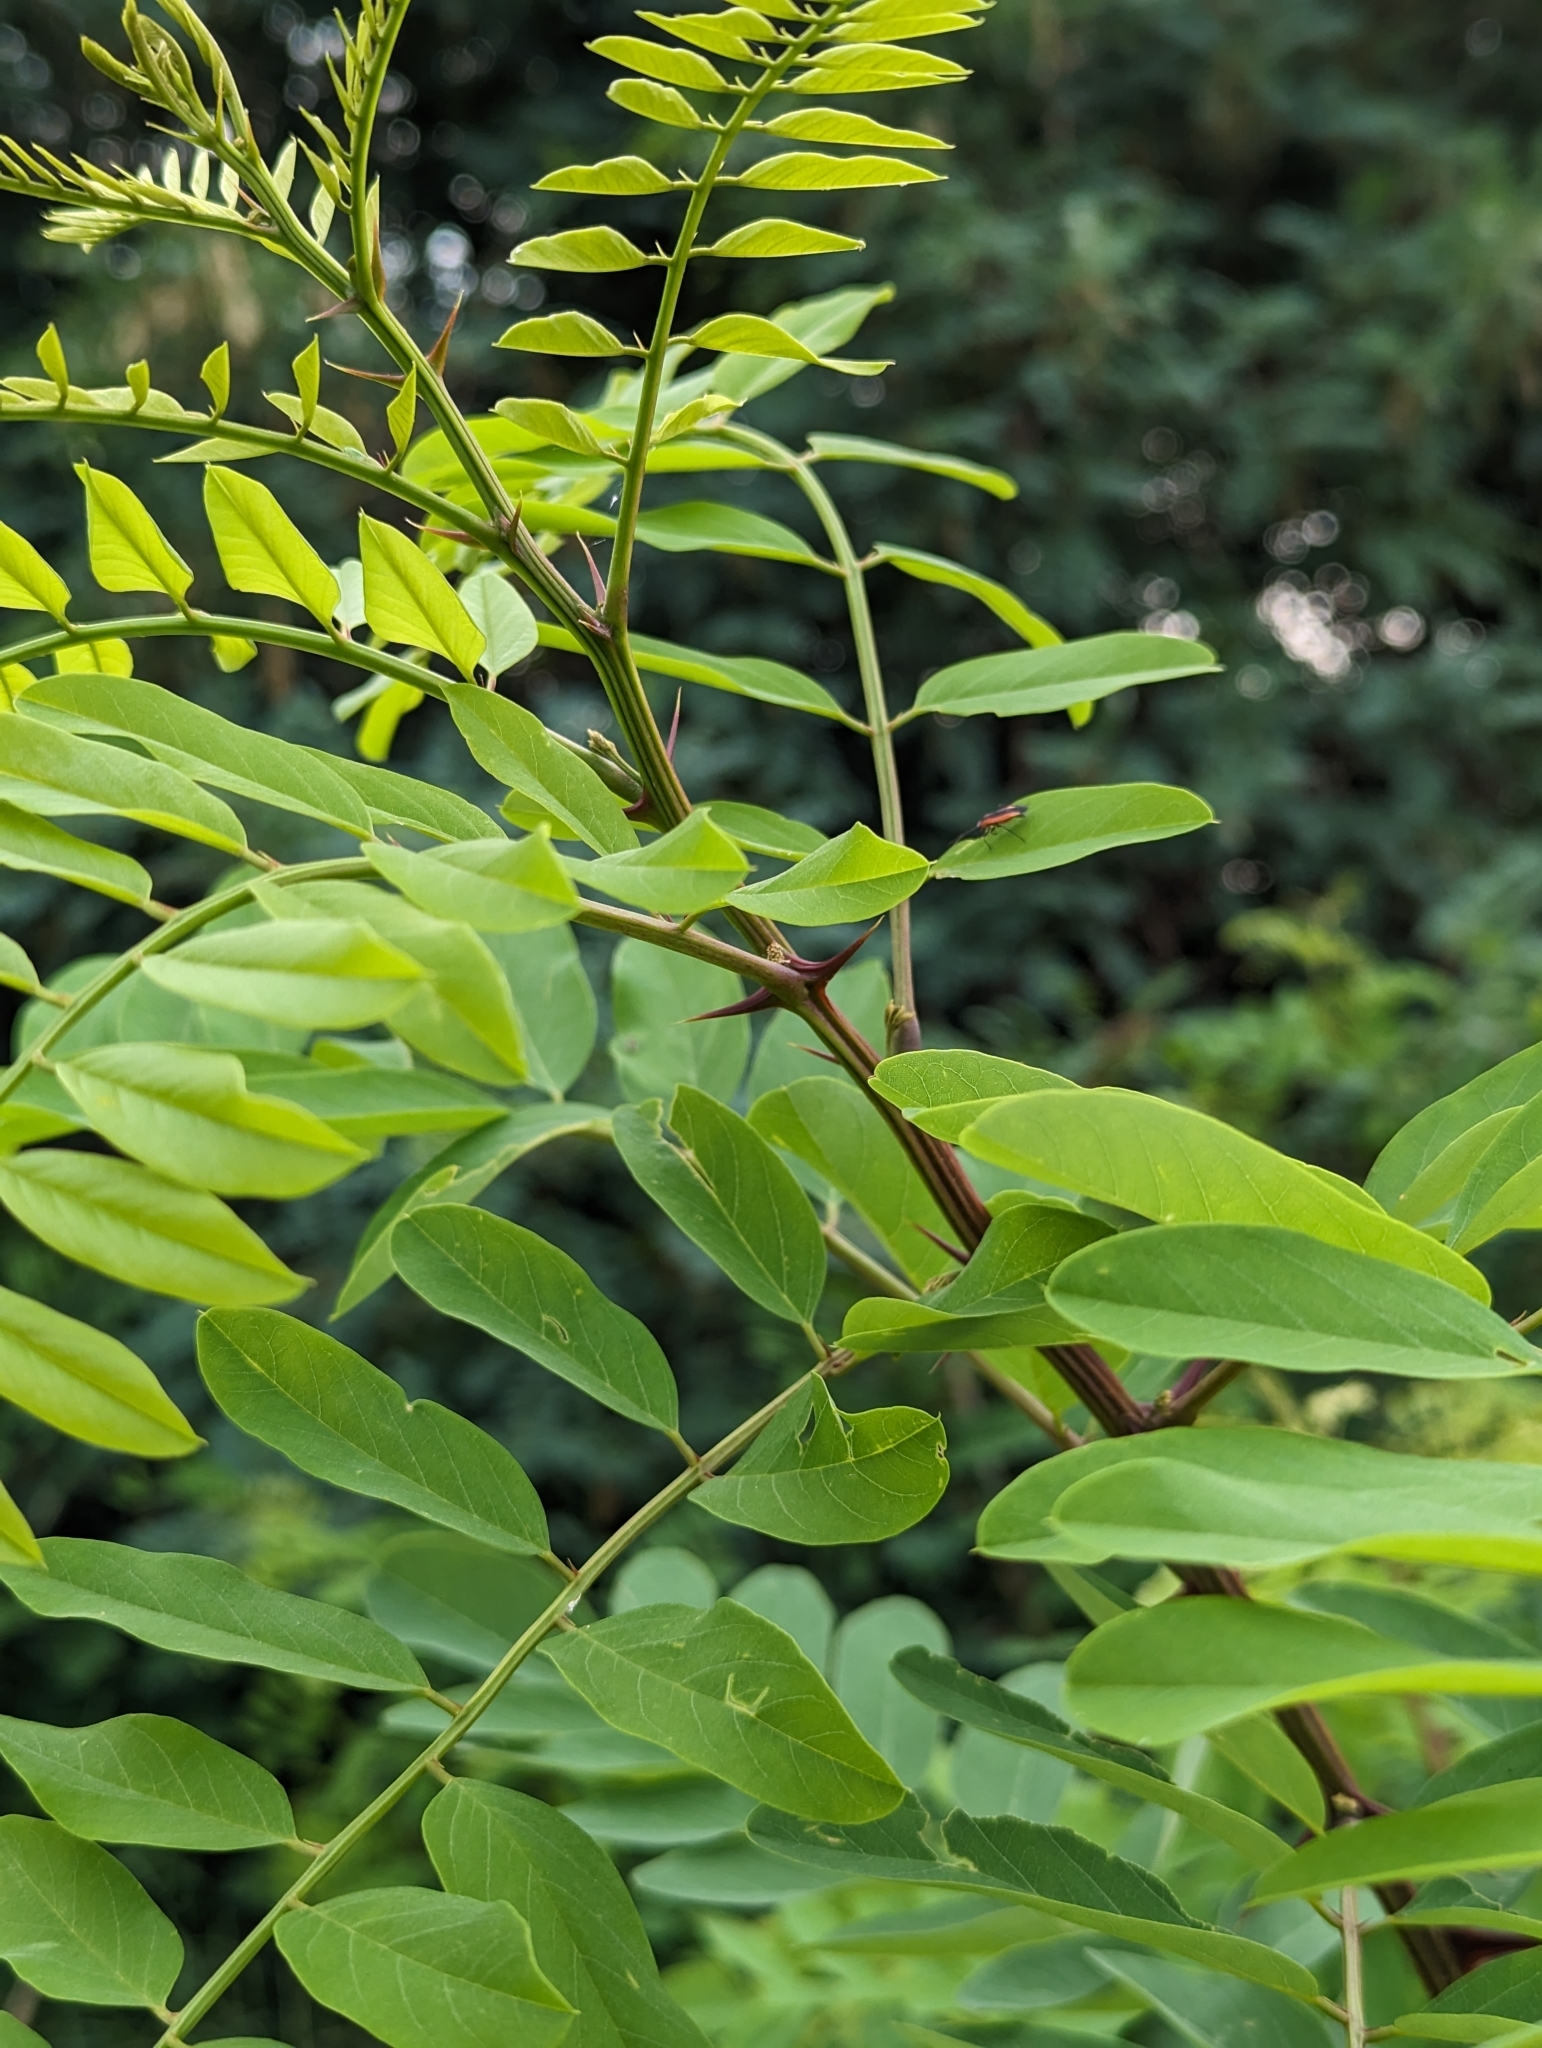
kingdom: Plantae
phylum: Tracheophyta
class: Magnoliopsida
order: Fabales
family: Fabaceae
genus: Robinia
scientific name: Robinia pseudoacacia
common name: Black locust
